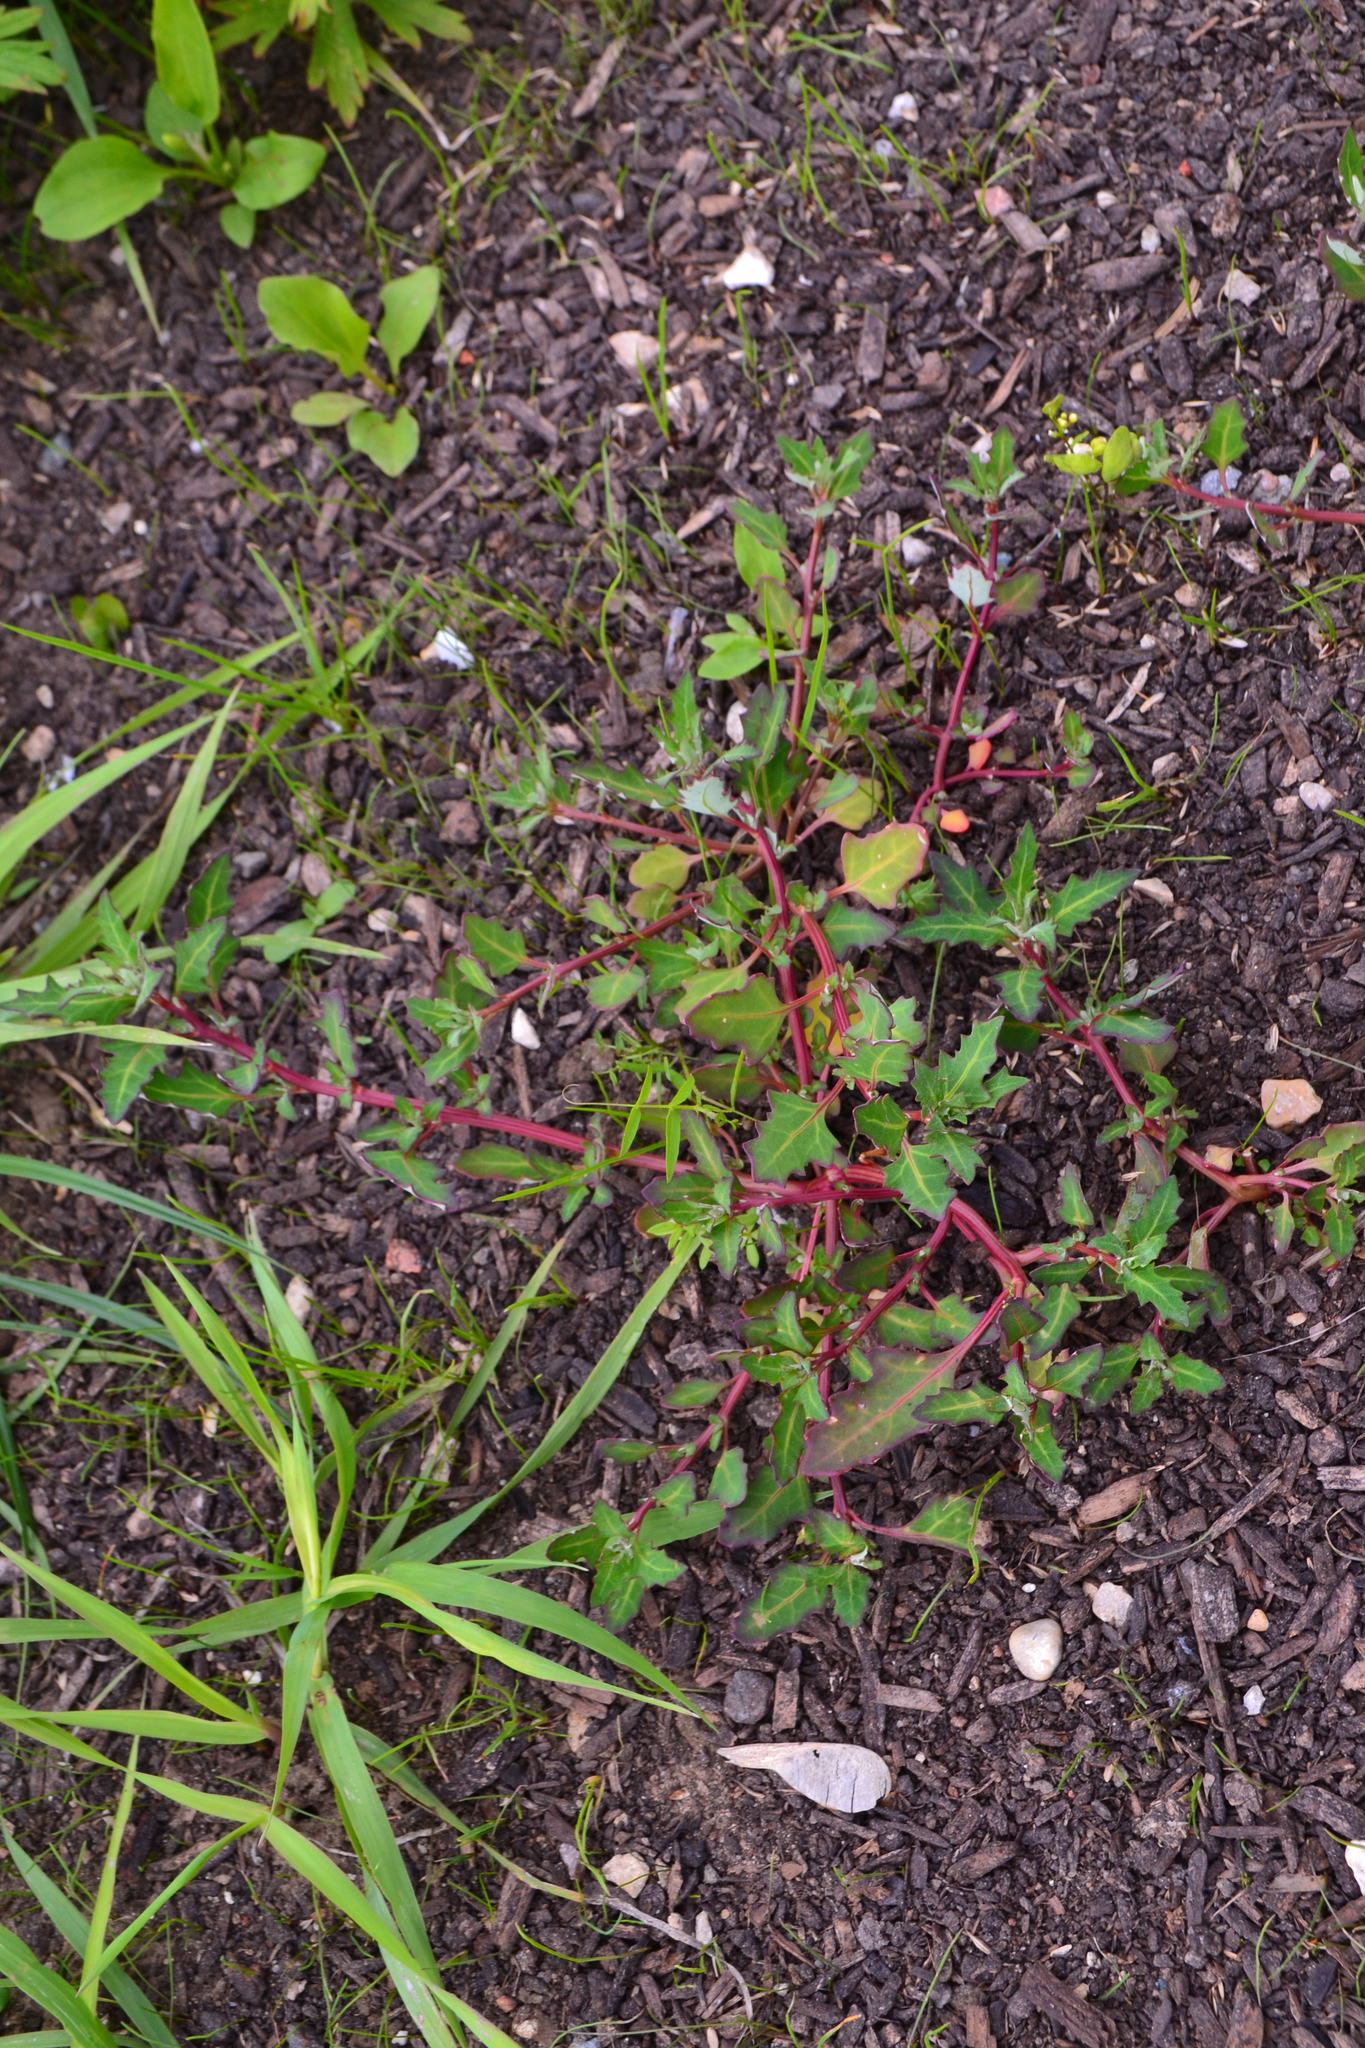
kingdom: Plantae
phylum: Tracheophyta
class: Magnoliopsida
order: Caryophyllales
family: Amaranthaceae
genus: Oxybasis
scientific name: Oxybasis glauca
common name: Glaucous goosefoot
